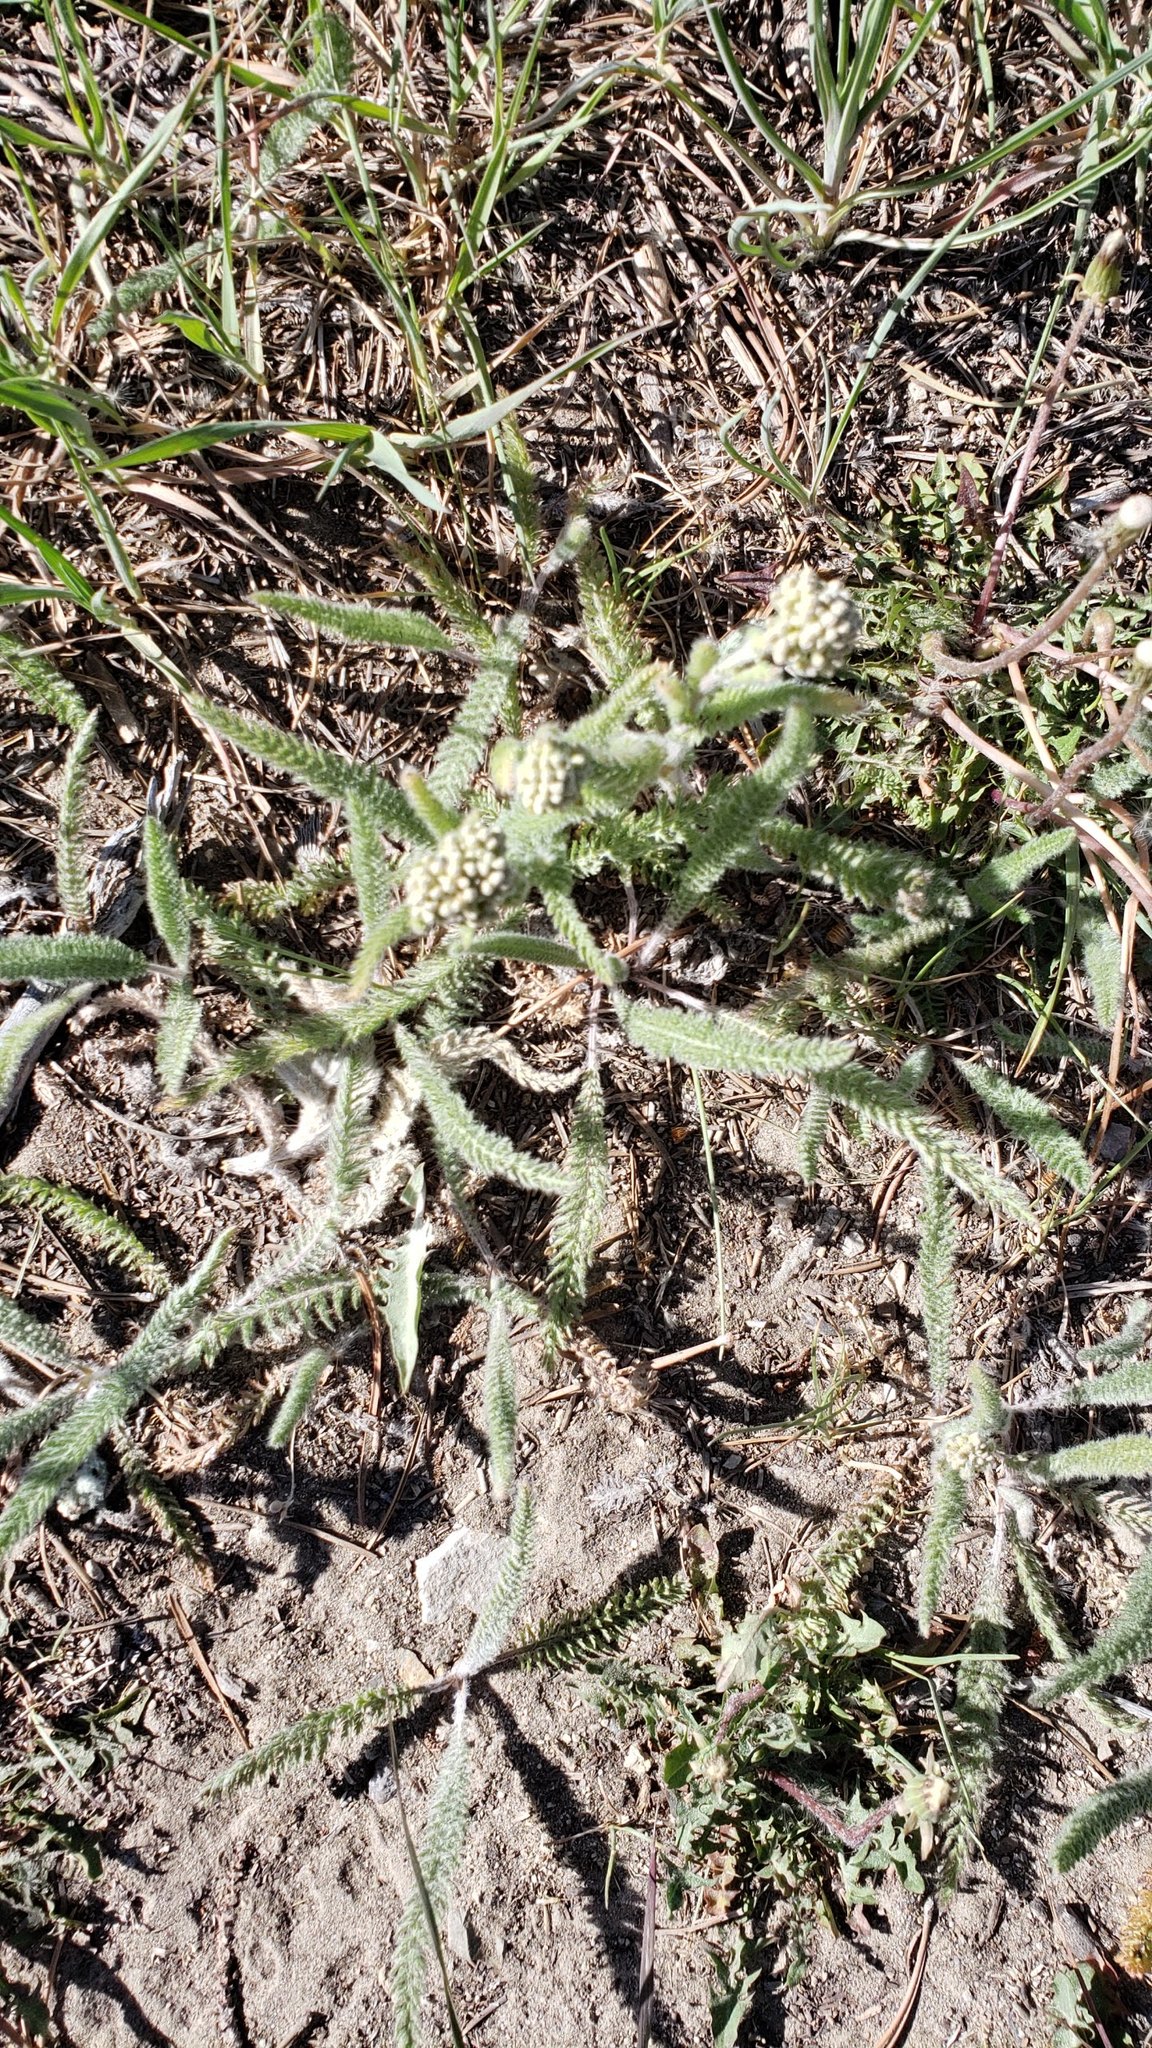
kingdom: Plantae
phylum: Tracheophyta
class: Magnoliopsida
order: Asterales
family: Asteraceae
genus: Achillea
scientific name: Achillea millefolium
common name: Yarrow
